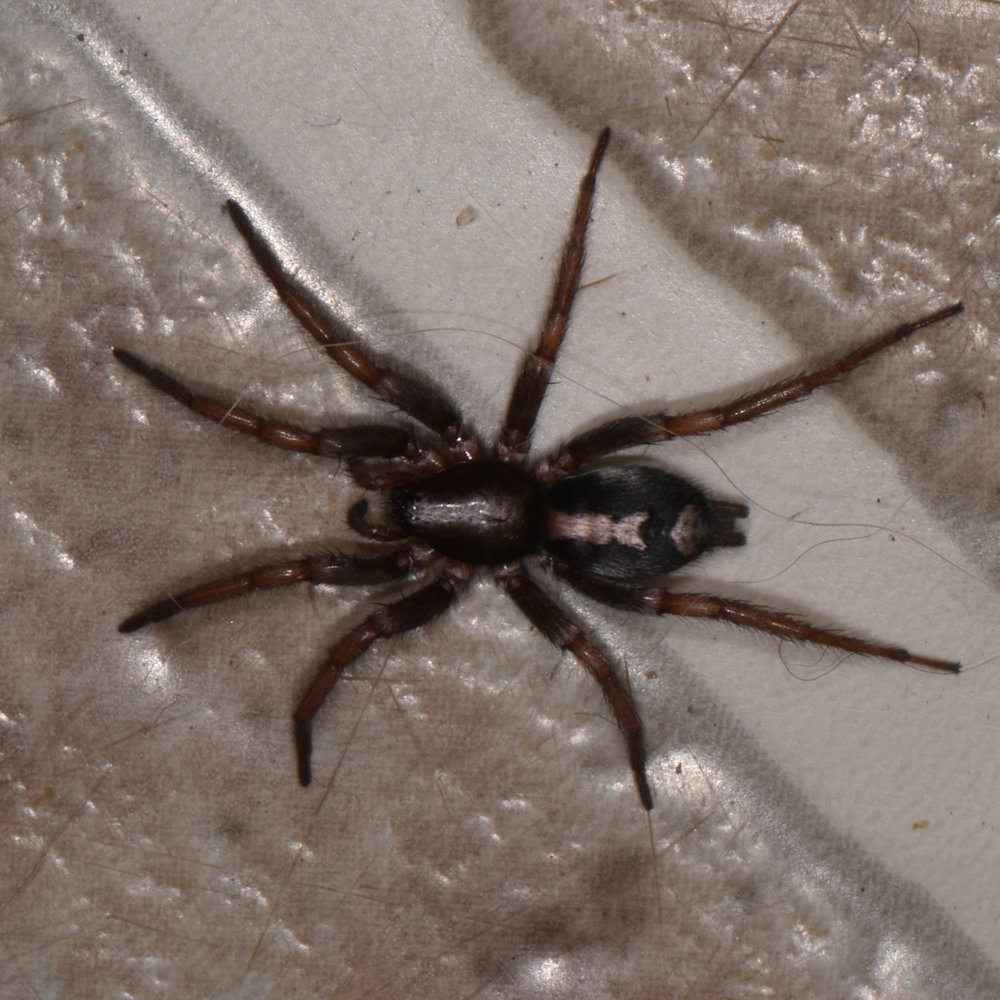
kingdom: Animalia
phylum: Arthropoda
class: Arachnida
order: Araneae
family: Gnaphosidae
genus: Herpyllus
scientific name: Herpyllus ecclesiasticus
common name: Eastern parson spider
